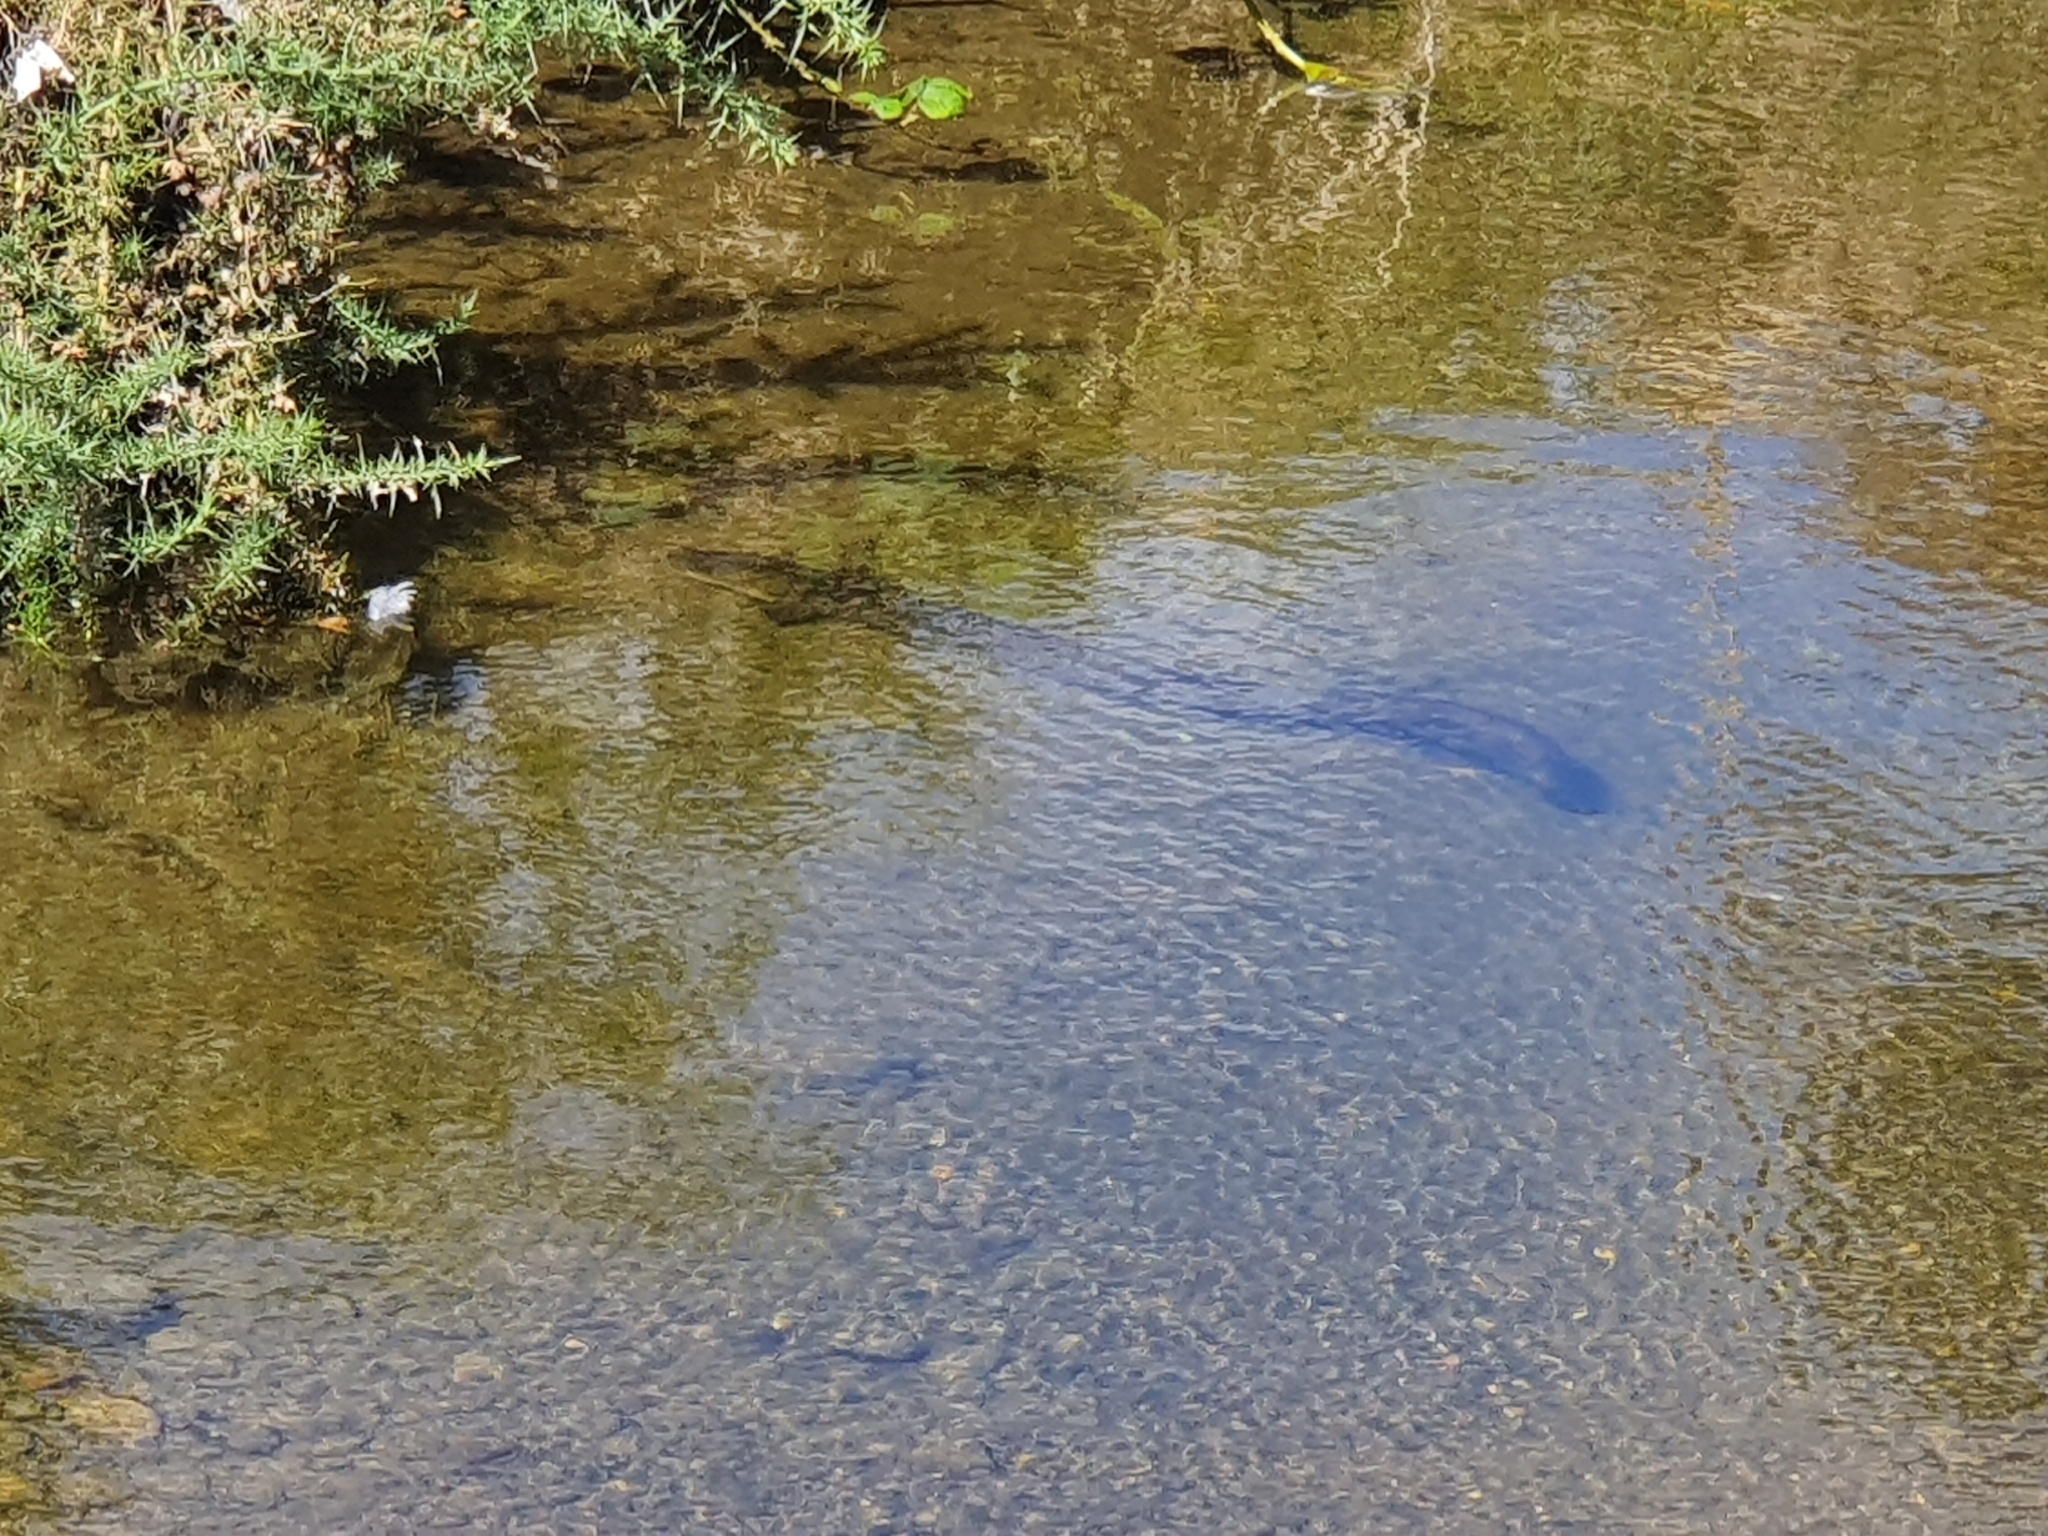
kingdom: Animalia
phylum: Chordata
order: Anguilliformes
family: Anguillidae
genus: Anguilla
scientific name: Anguilla dieffenbachii
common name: New zealand longfin eel
